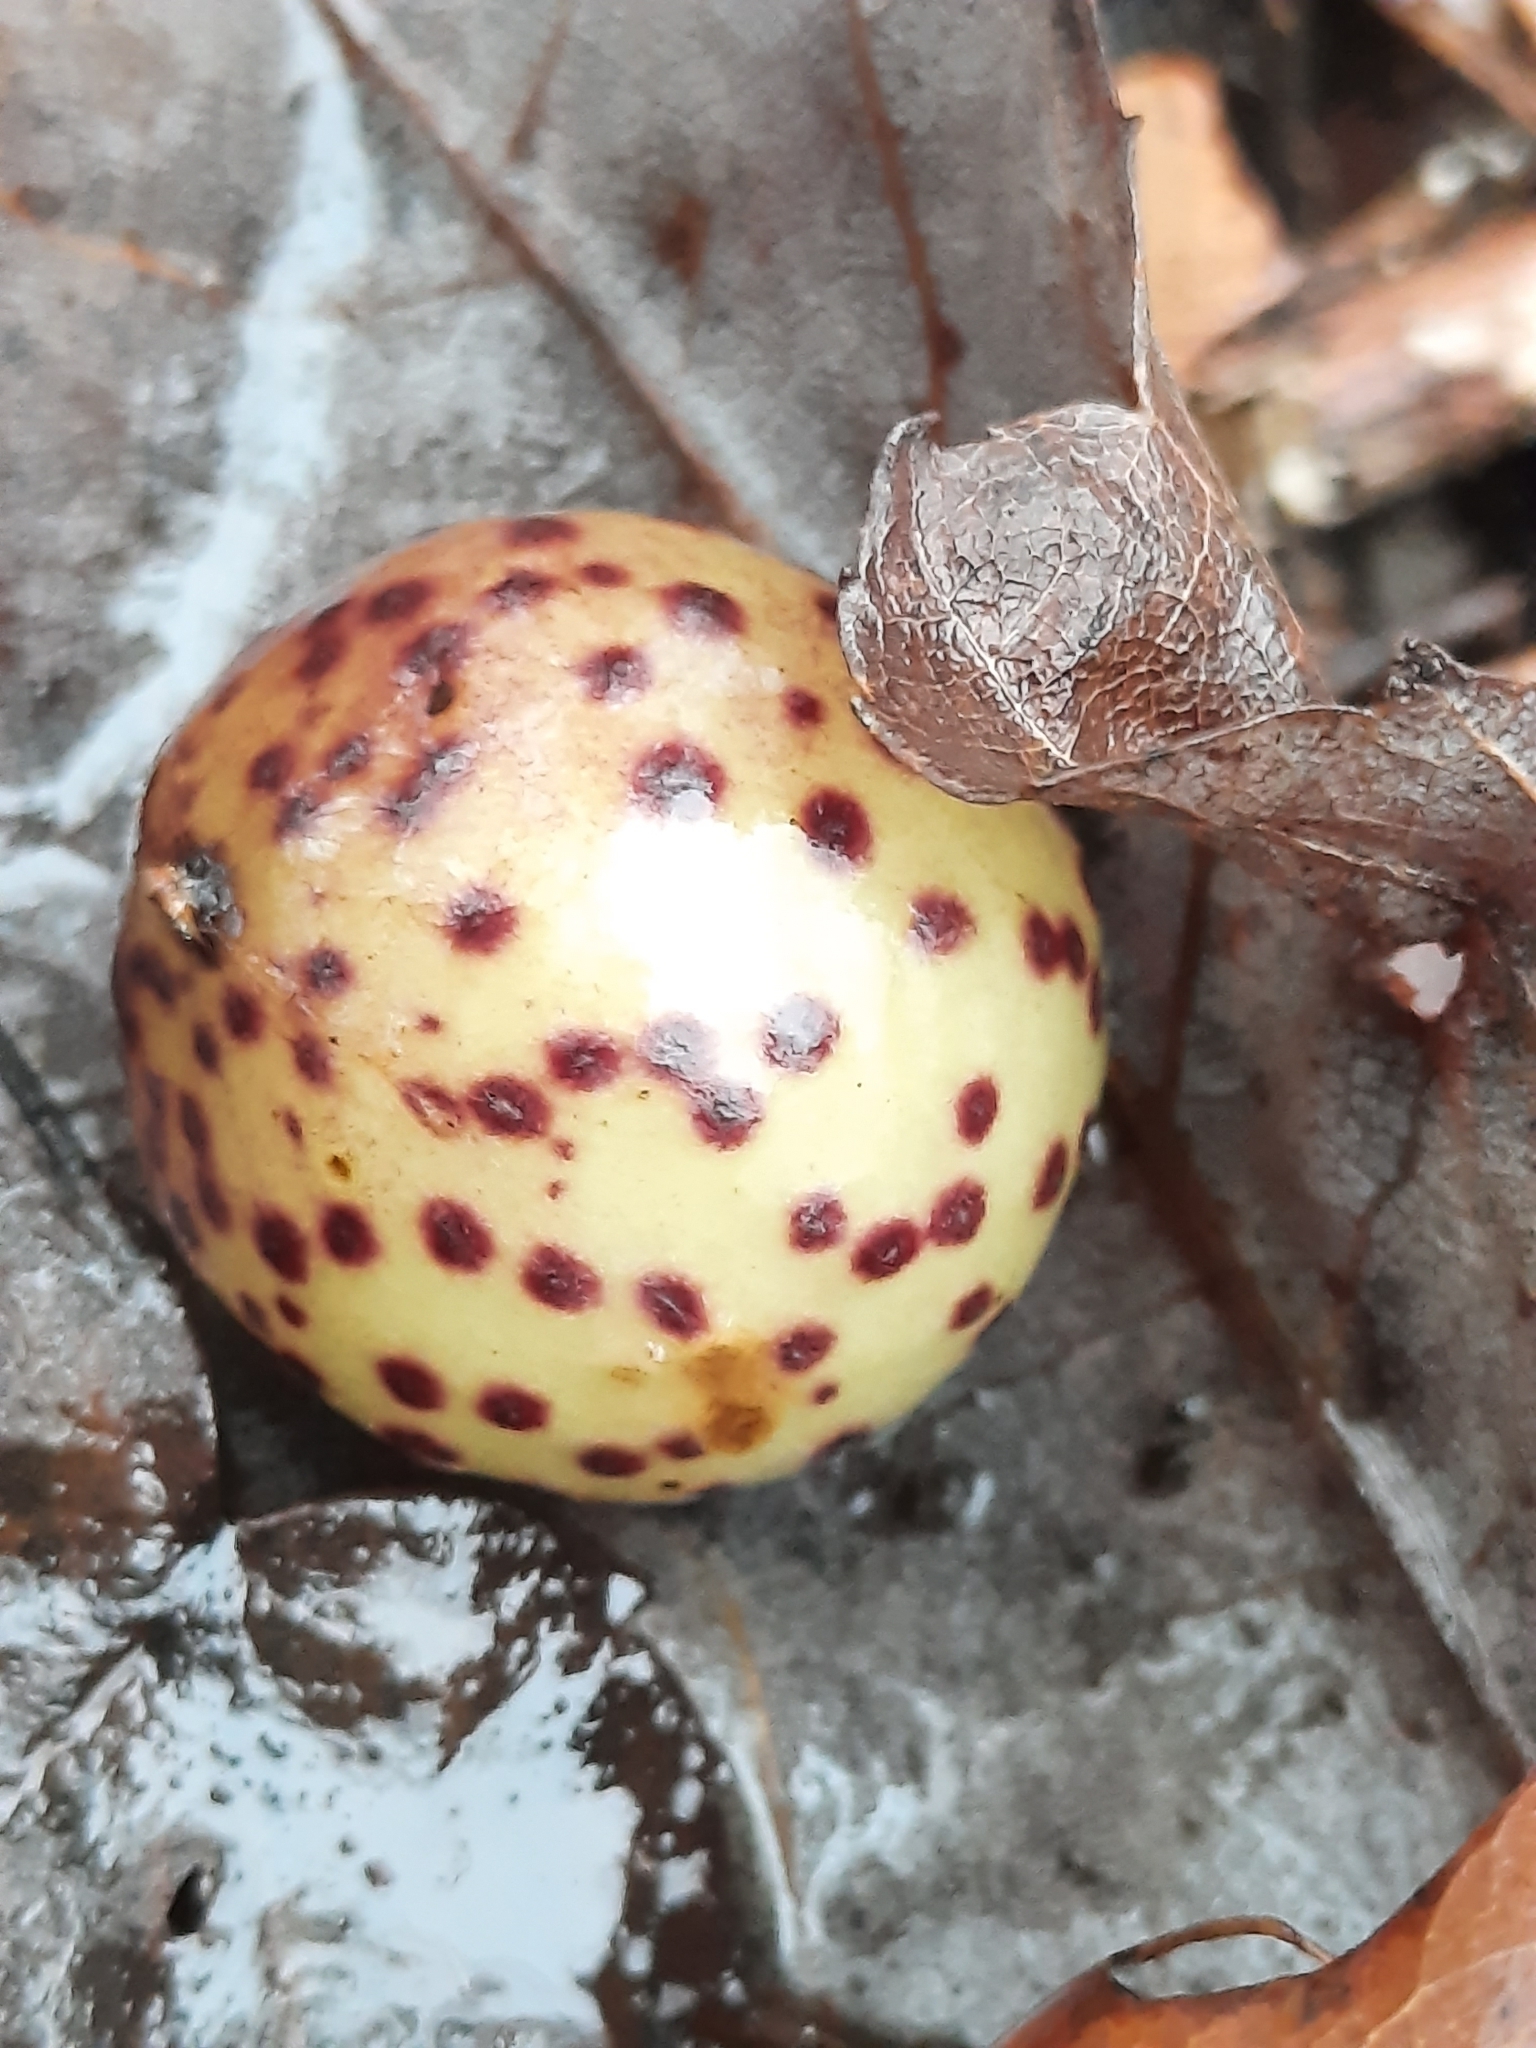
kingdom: Animalia
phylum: Arthropoda
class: Insecta
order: Hymenoptera
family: Cynipidae
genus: Amphibolips
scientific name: Amphibolips
